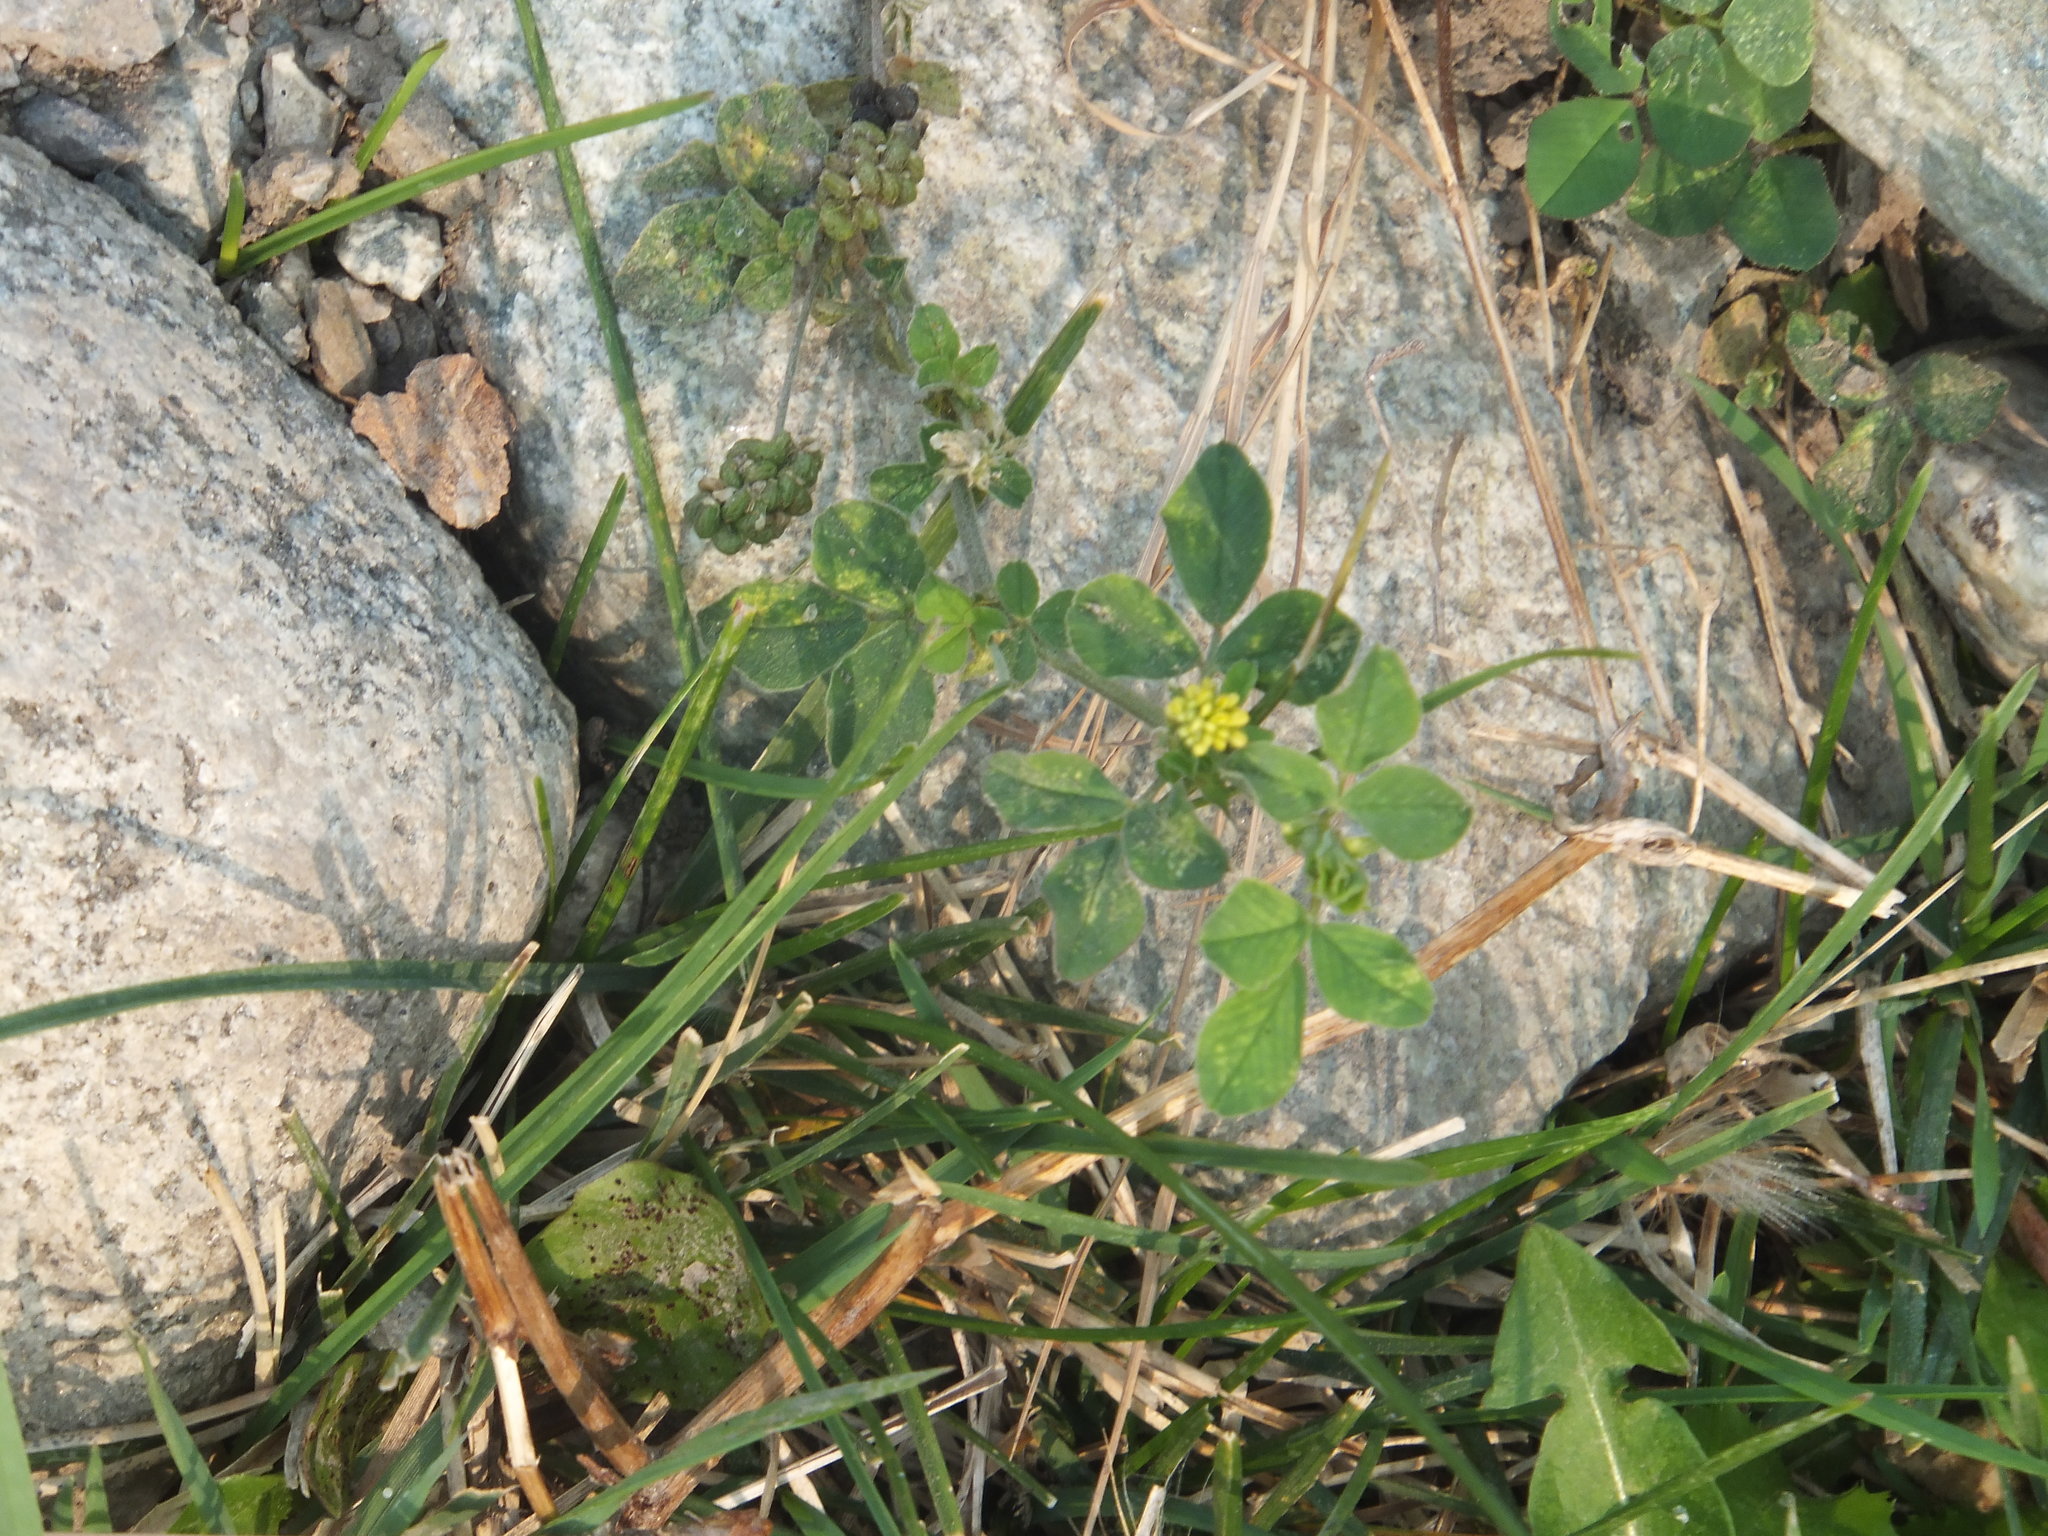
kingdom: Plantae
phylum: Tracheophyta
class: Magnoliopsida
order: Fabales
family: Fabaceae
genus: Medicago
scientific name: Medicago lupulina
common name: Black medick
